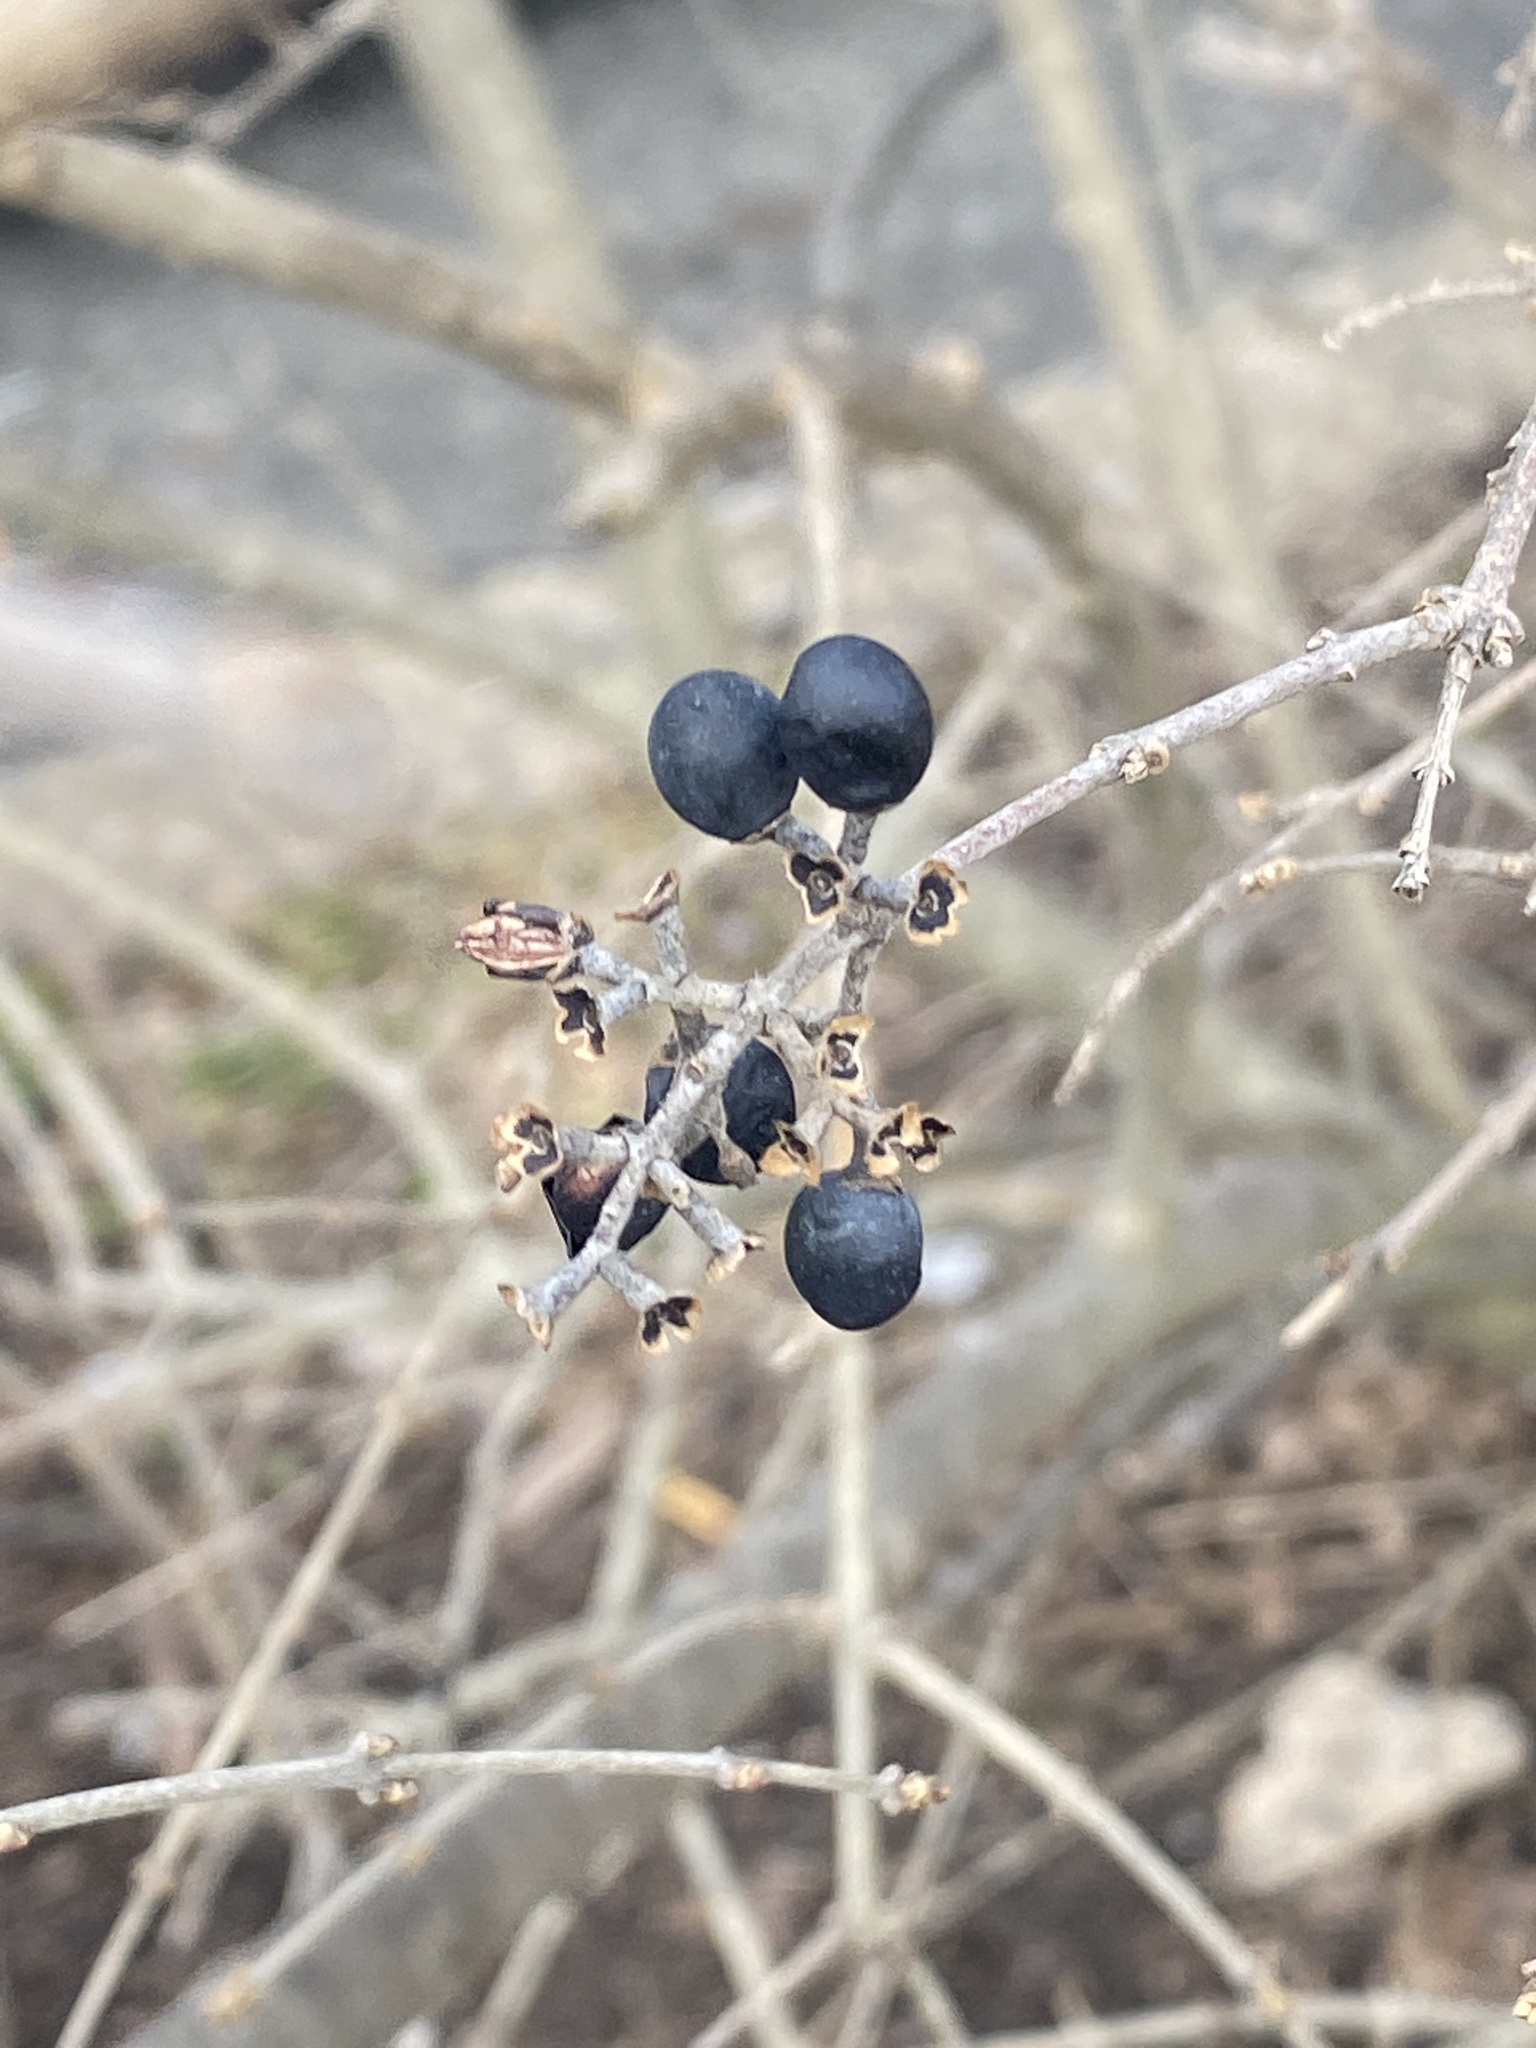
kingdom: Plantae
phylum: Tracheophyta
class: Magnoliopsida
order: Lamiales
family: Oleaceae
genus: Ligustrum
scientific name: Ligustrum obtusifolium
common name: Border privet
